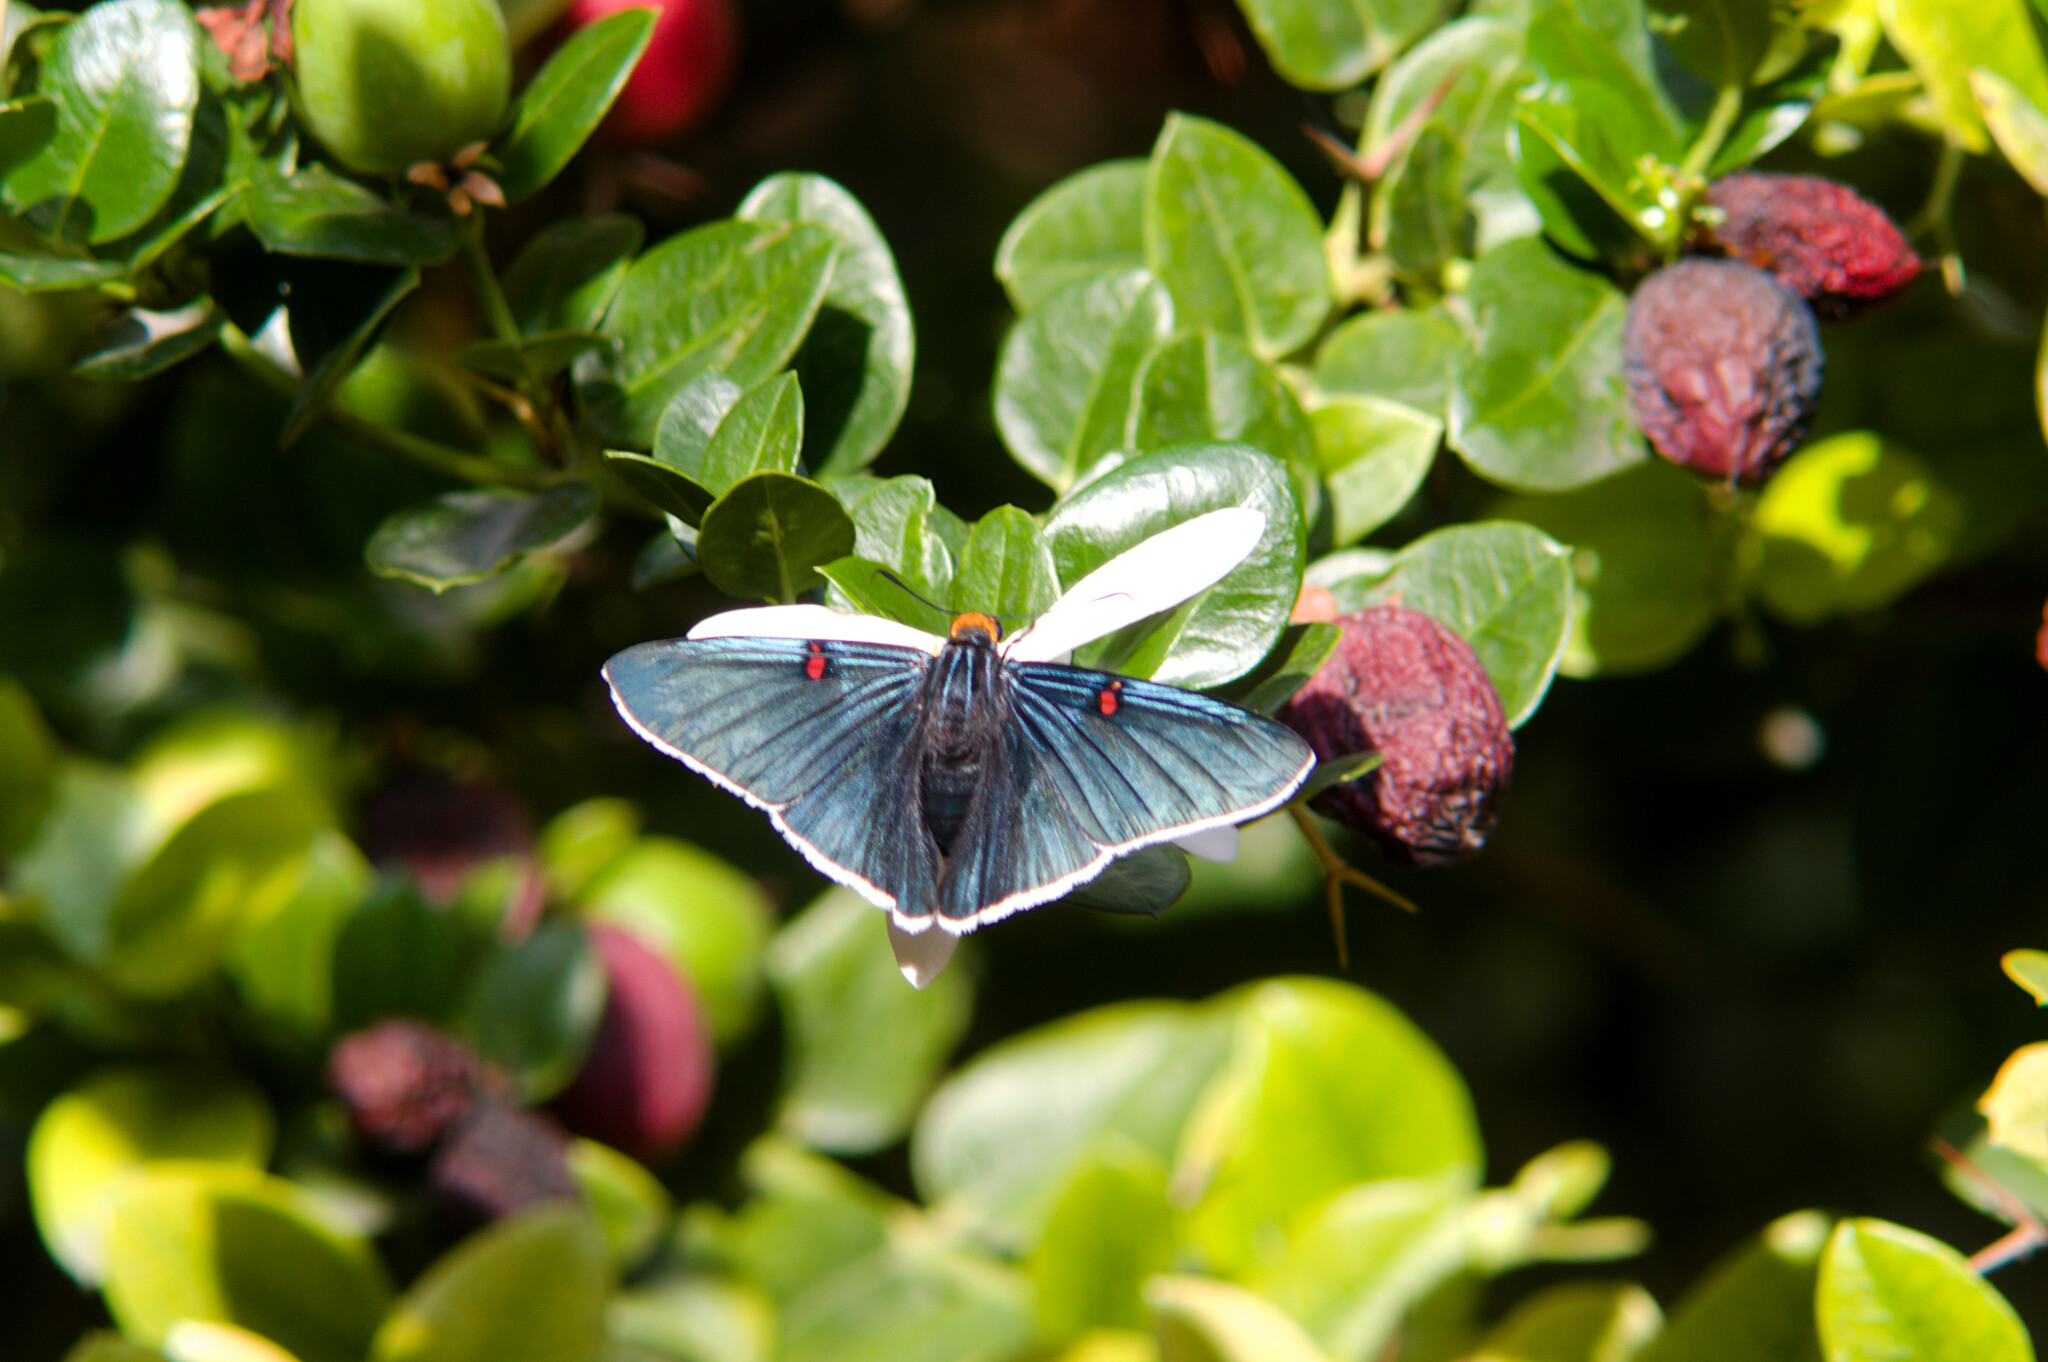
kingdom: Animalia
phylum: Arthropoda
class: Insecta
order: Lepidoptera
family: Hesperiidae
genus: Phocides
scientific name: Phocides lilea
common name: Guava skipper
